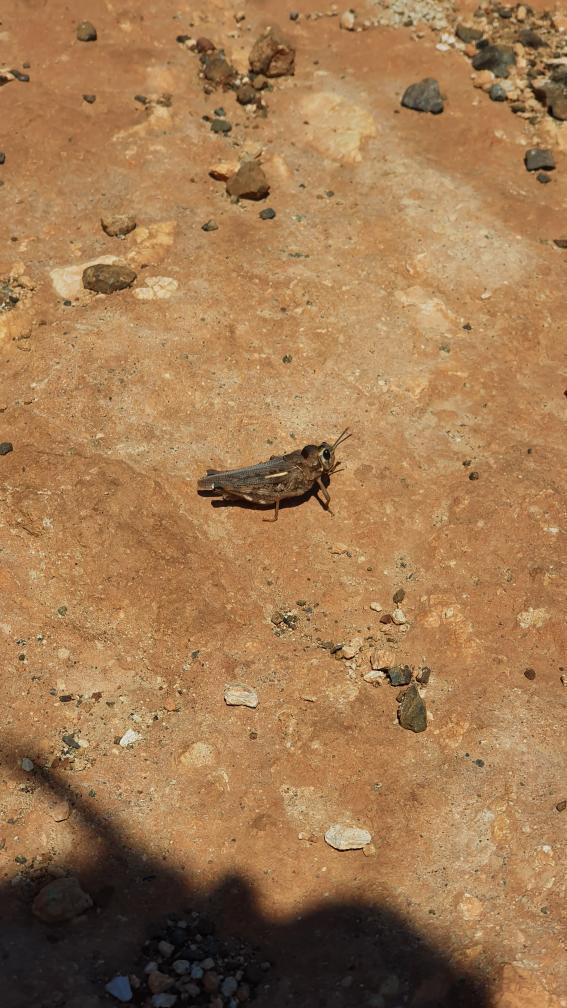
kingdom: Animalia
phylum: Arthropoda
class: Insecta
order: Orthoptera
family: Dericorythidae
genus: Dericorys
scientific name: Dericorys lobata
